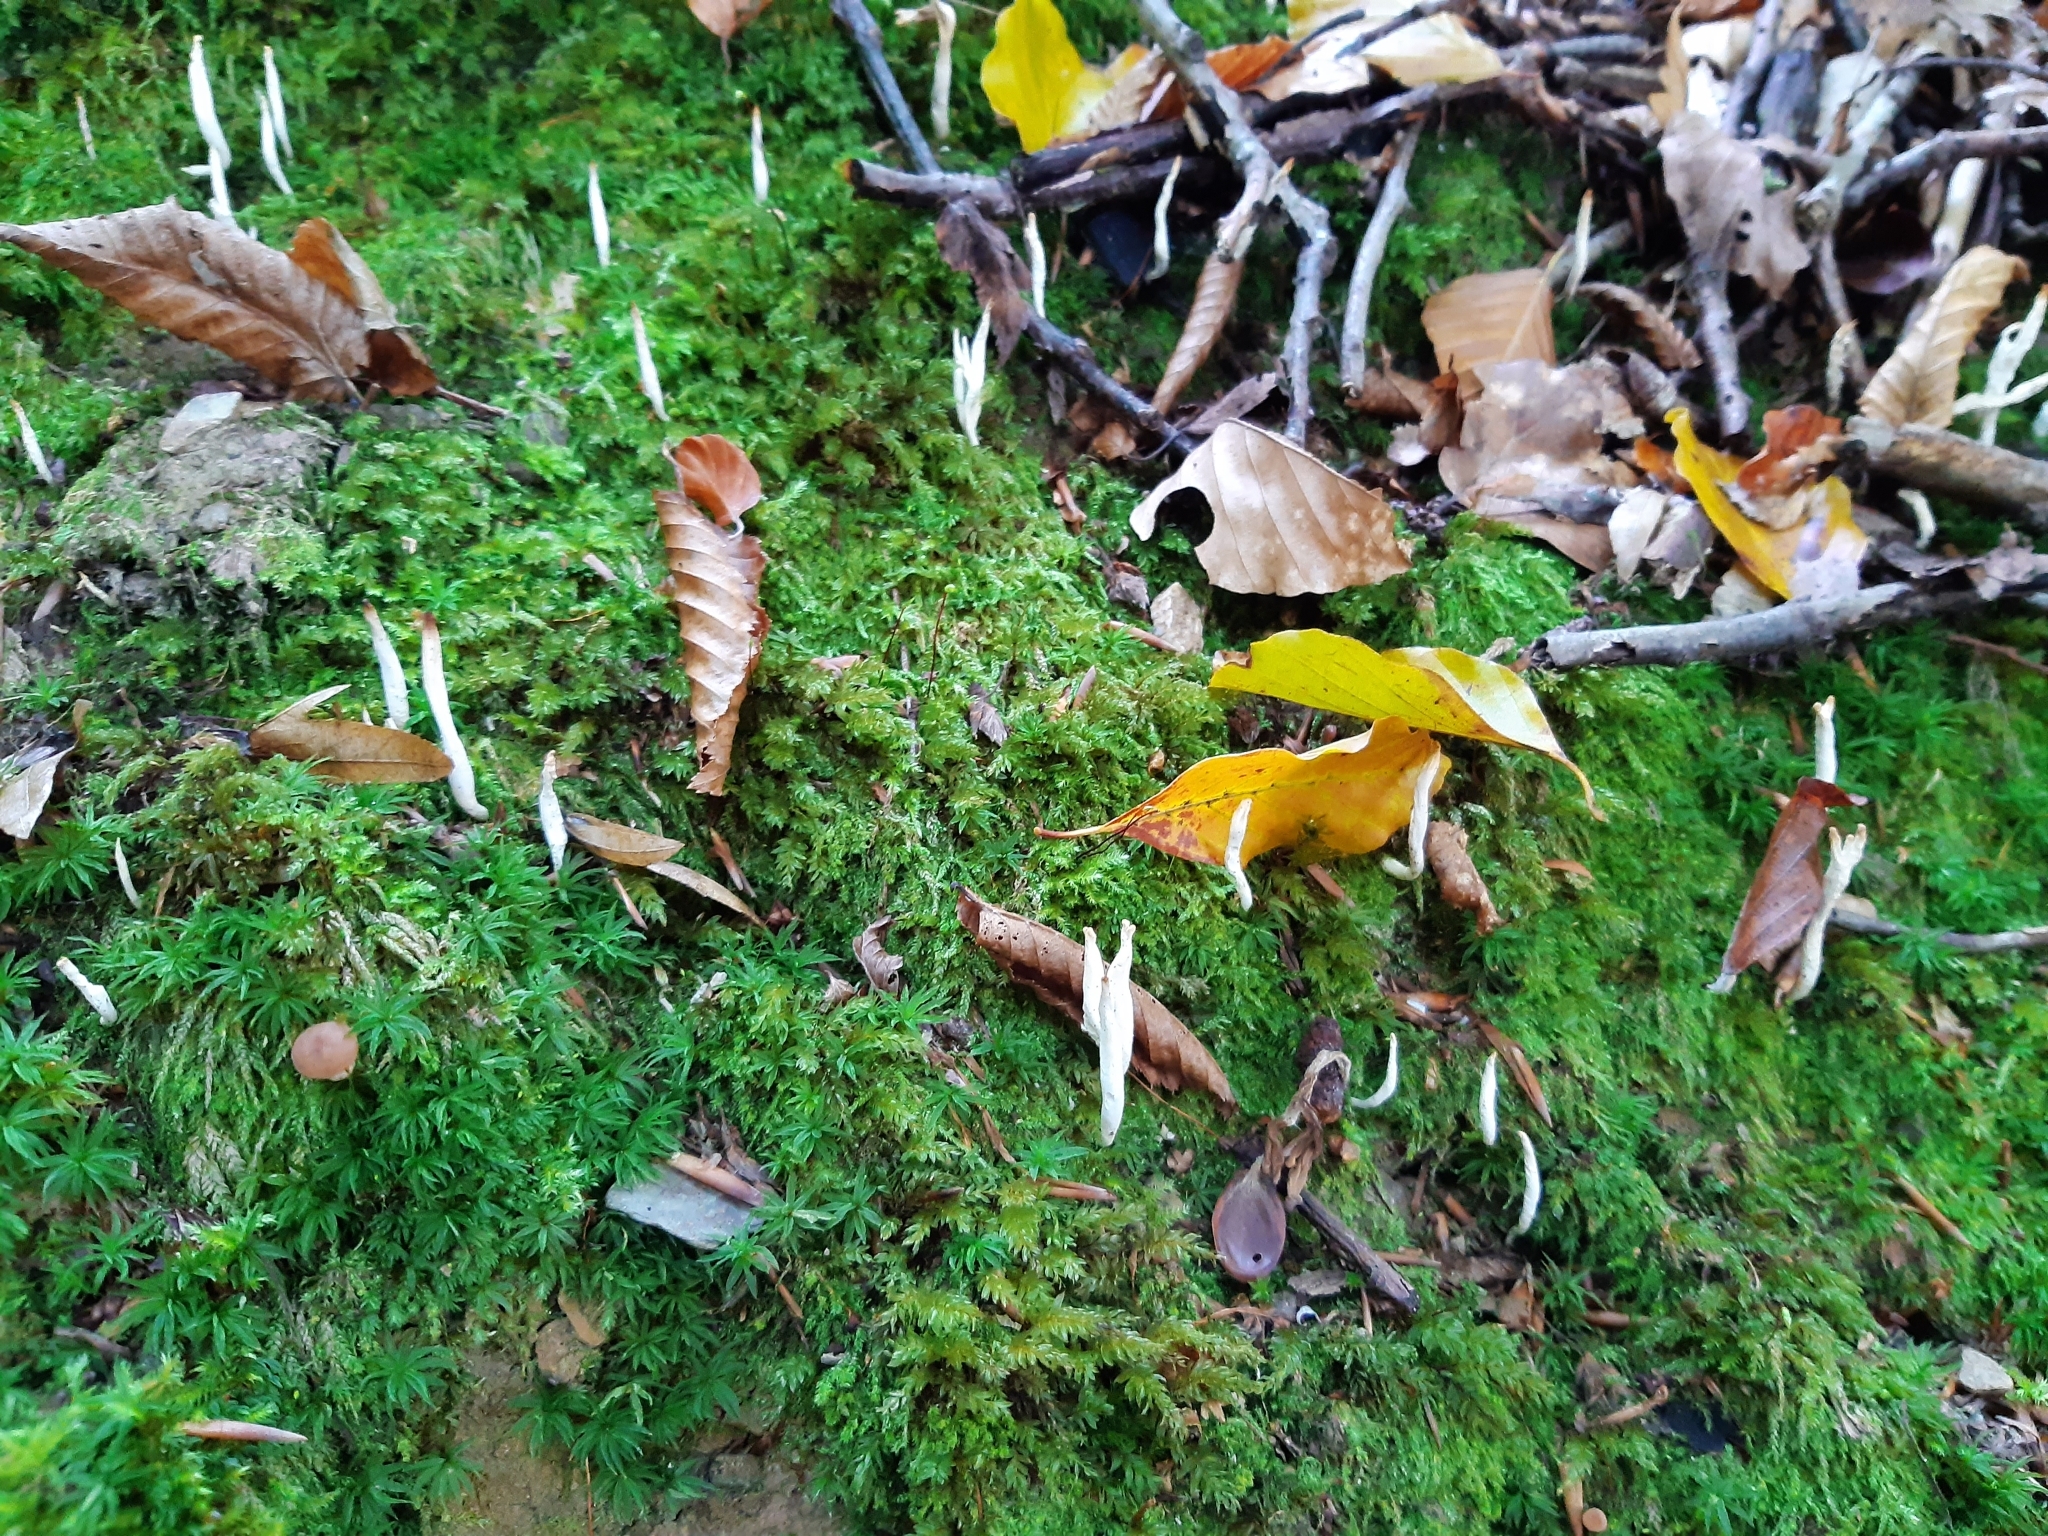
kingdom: Fungi
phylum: Ascomycota
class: Sordariomycetes
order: Xylariales
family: Xylariaceae
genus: Xylaria
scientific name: Xylaria hypoxylon
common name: Candle-snuff fungus
